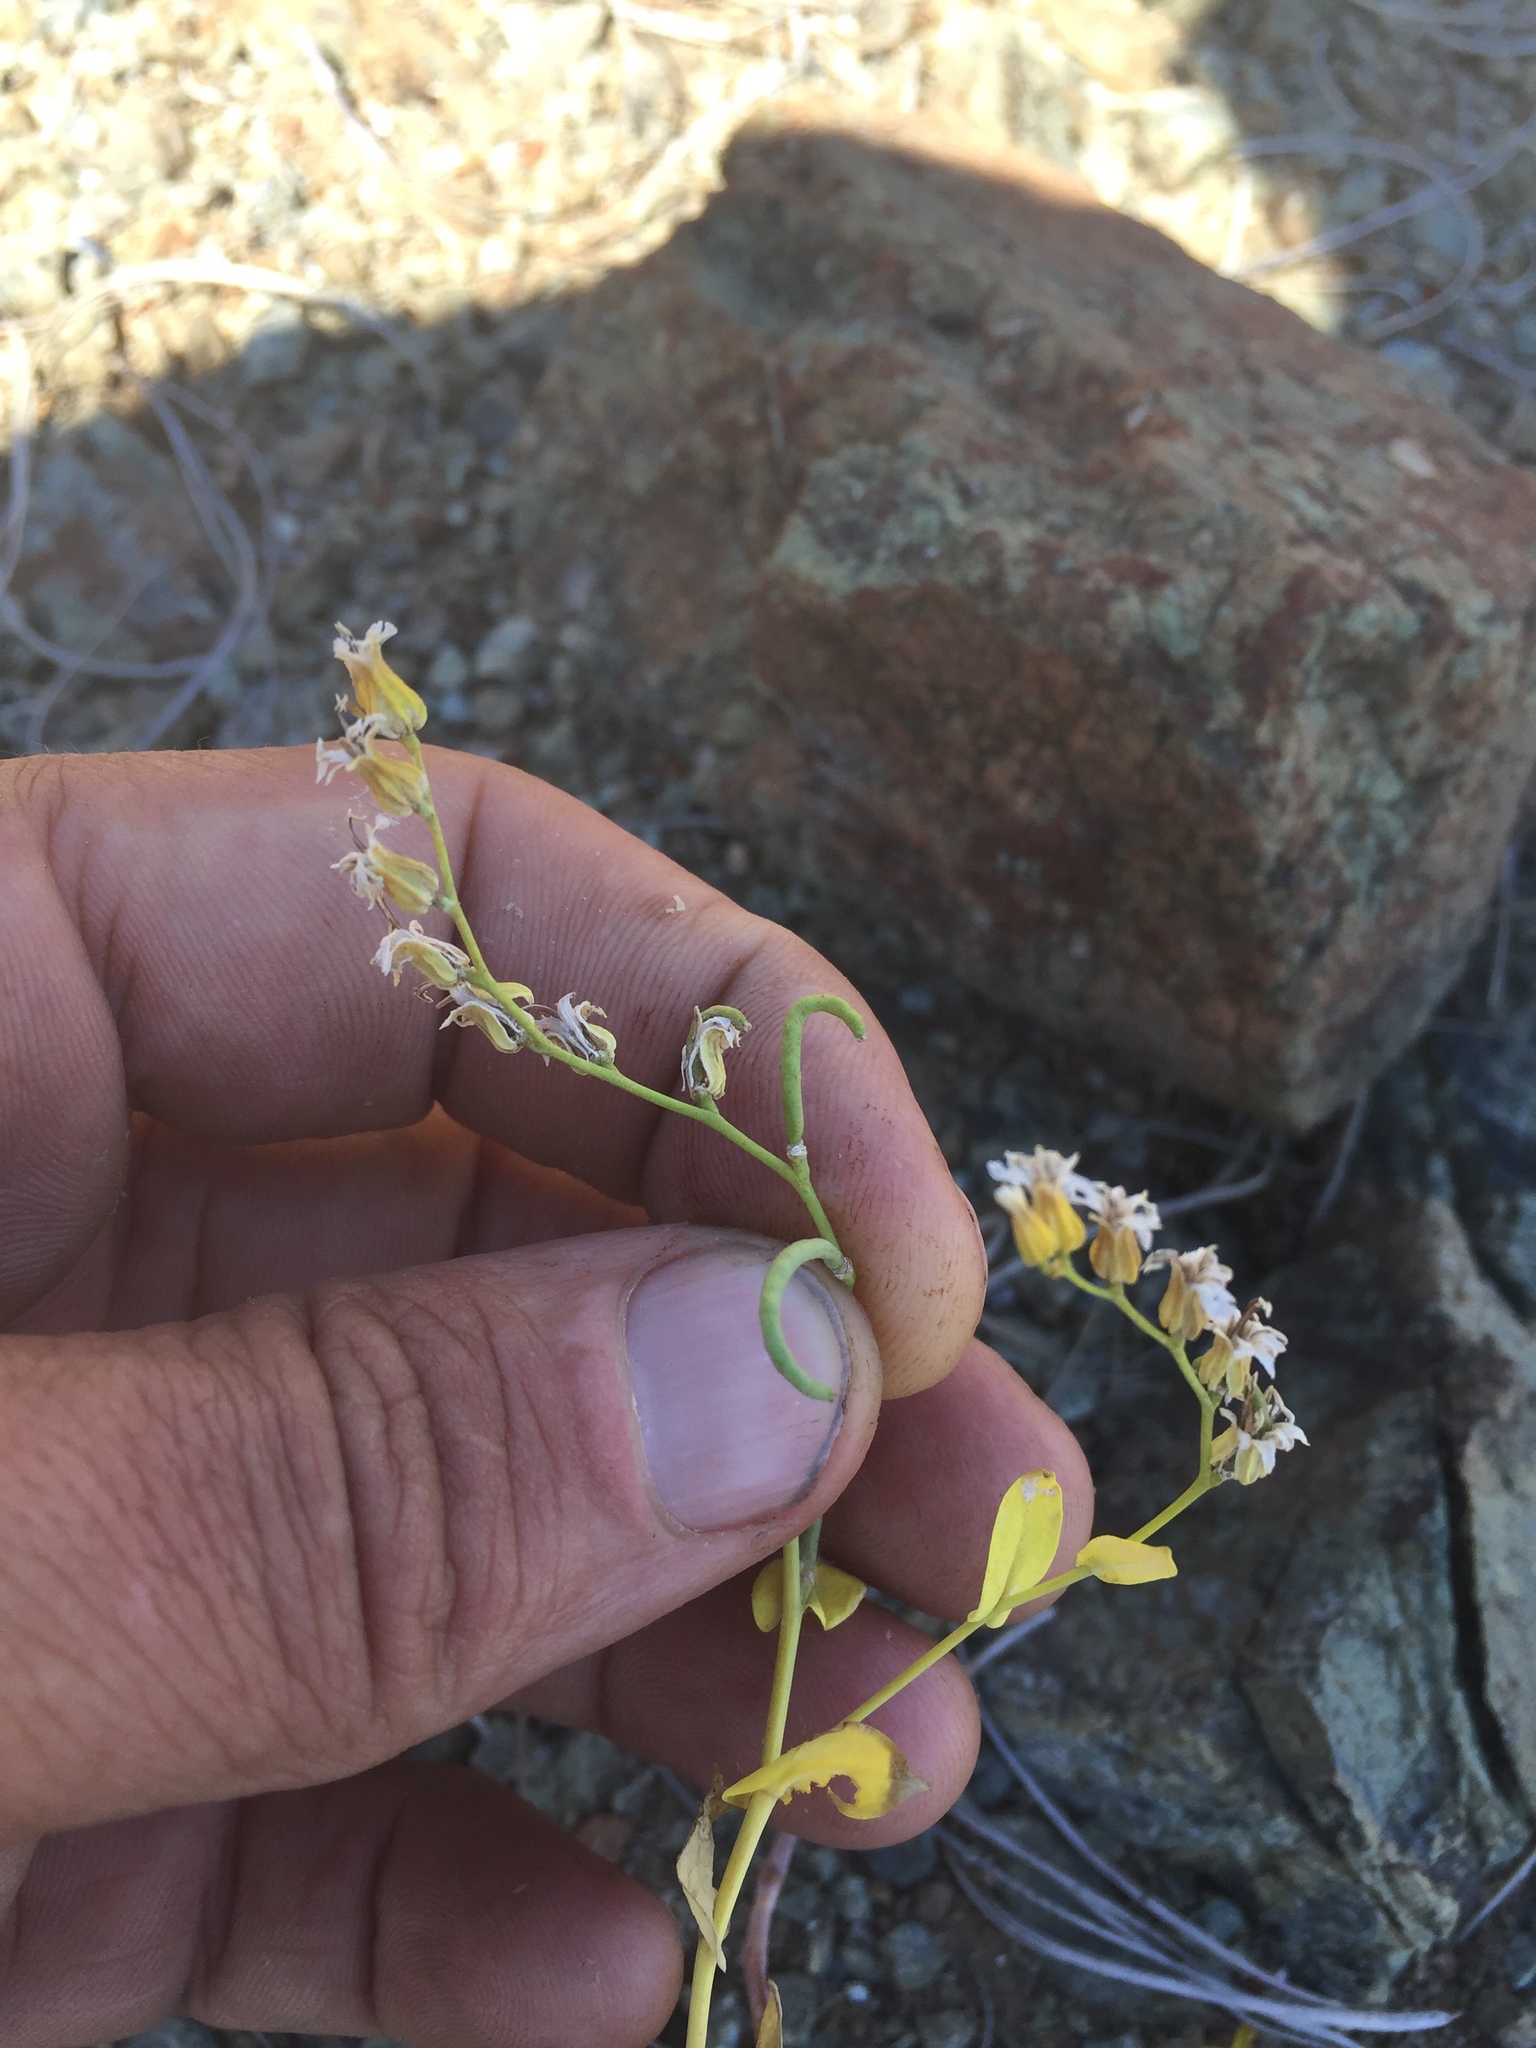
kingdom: Plantae
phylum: Tracheophyta
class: Magnoliopsida
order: Brassicales
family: Brassicaceae
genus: Streptanthus
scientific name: Streptanthus hesperidis
